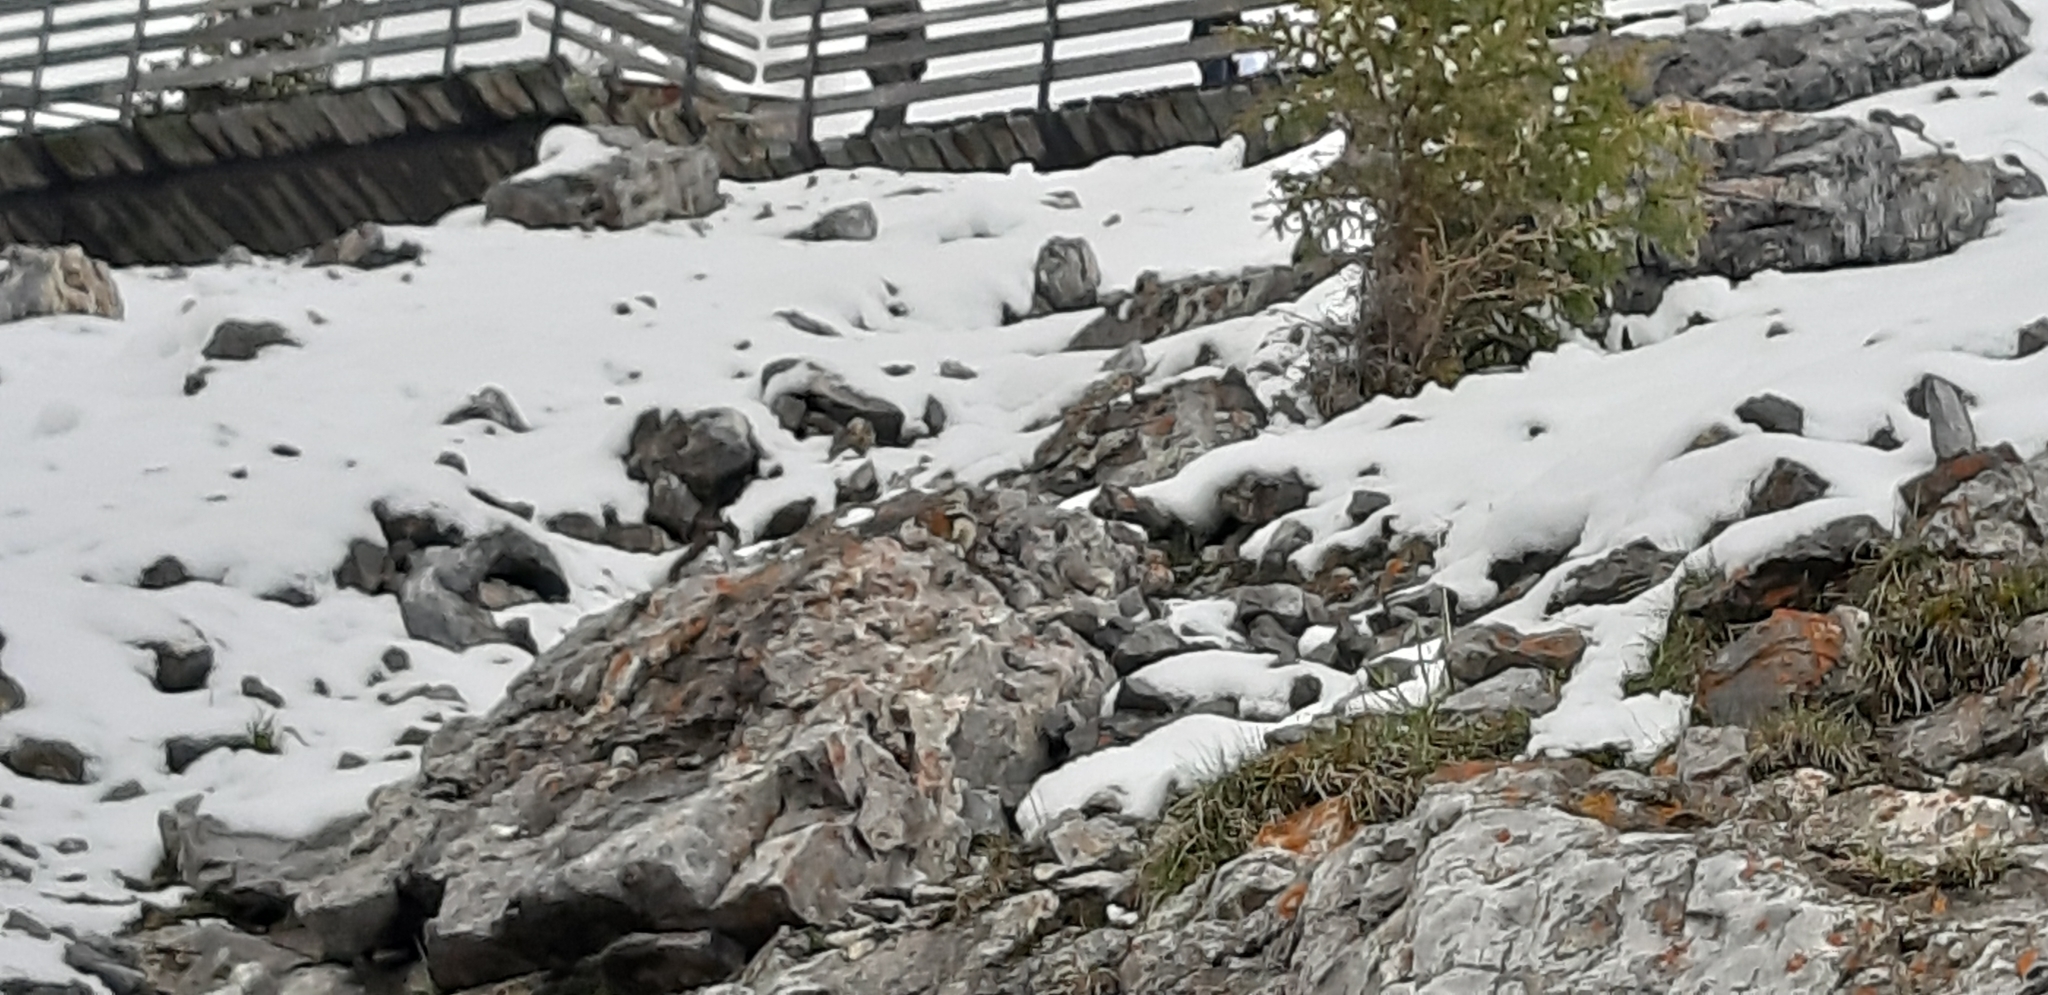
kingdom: Animalia
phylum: Chordata
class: Mammalia
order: Rodentia
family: Sciuridae
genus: Callospermophilus
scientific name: Callospermophilus lateralis
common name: Golden-mantled ground squirrel
